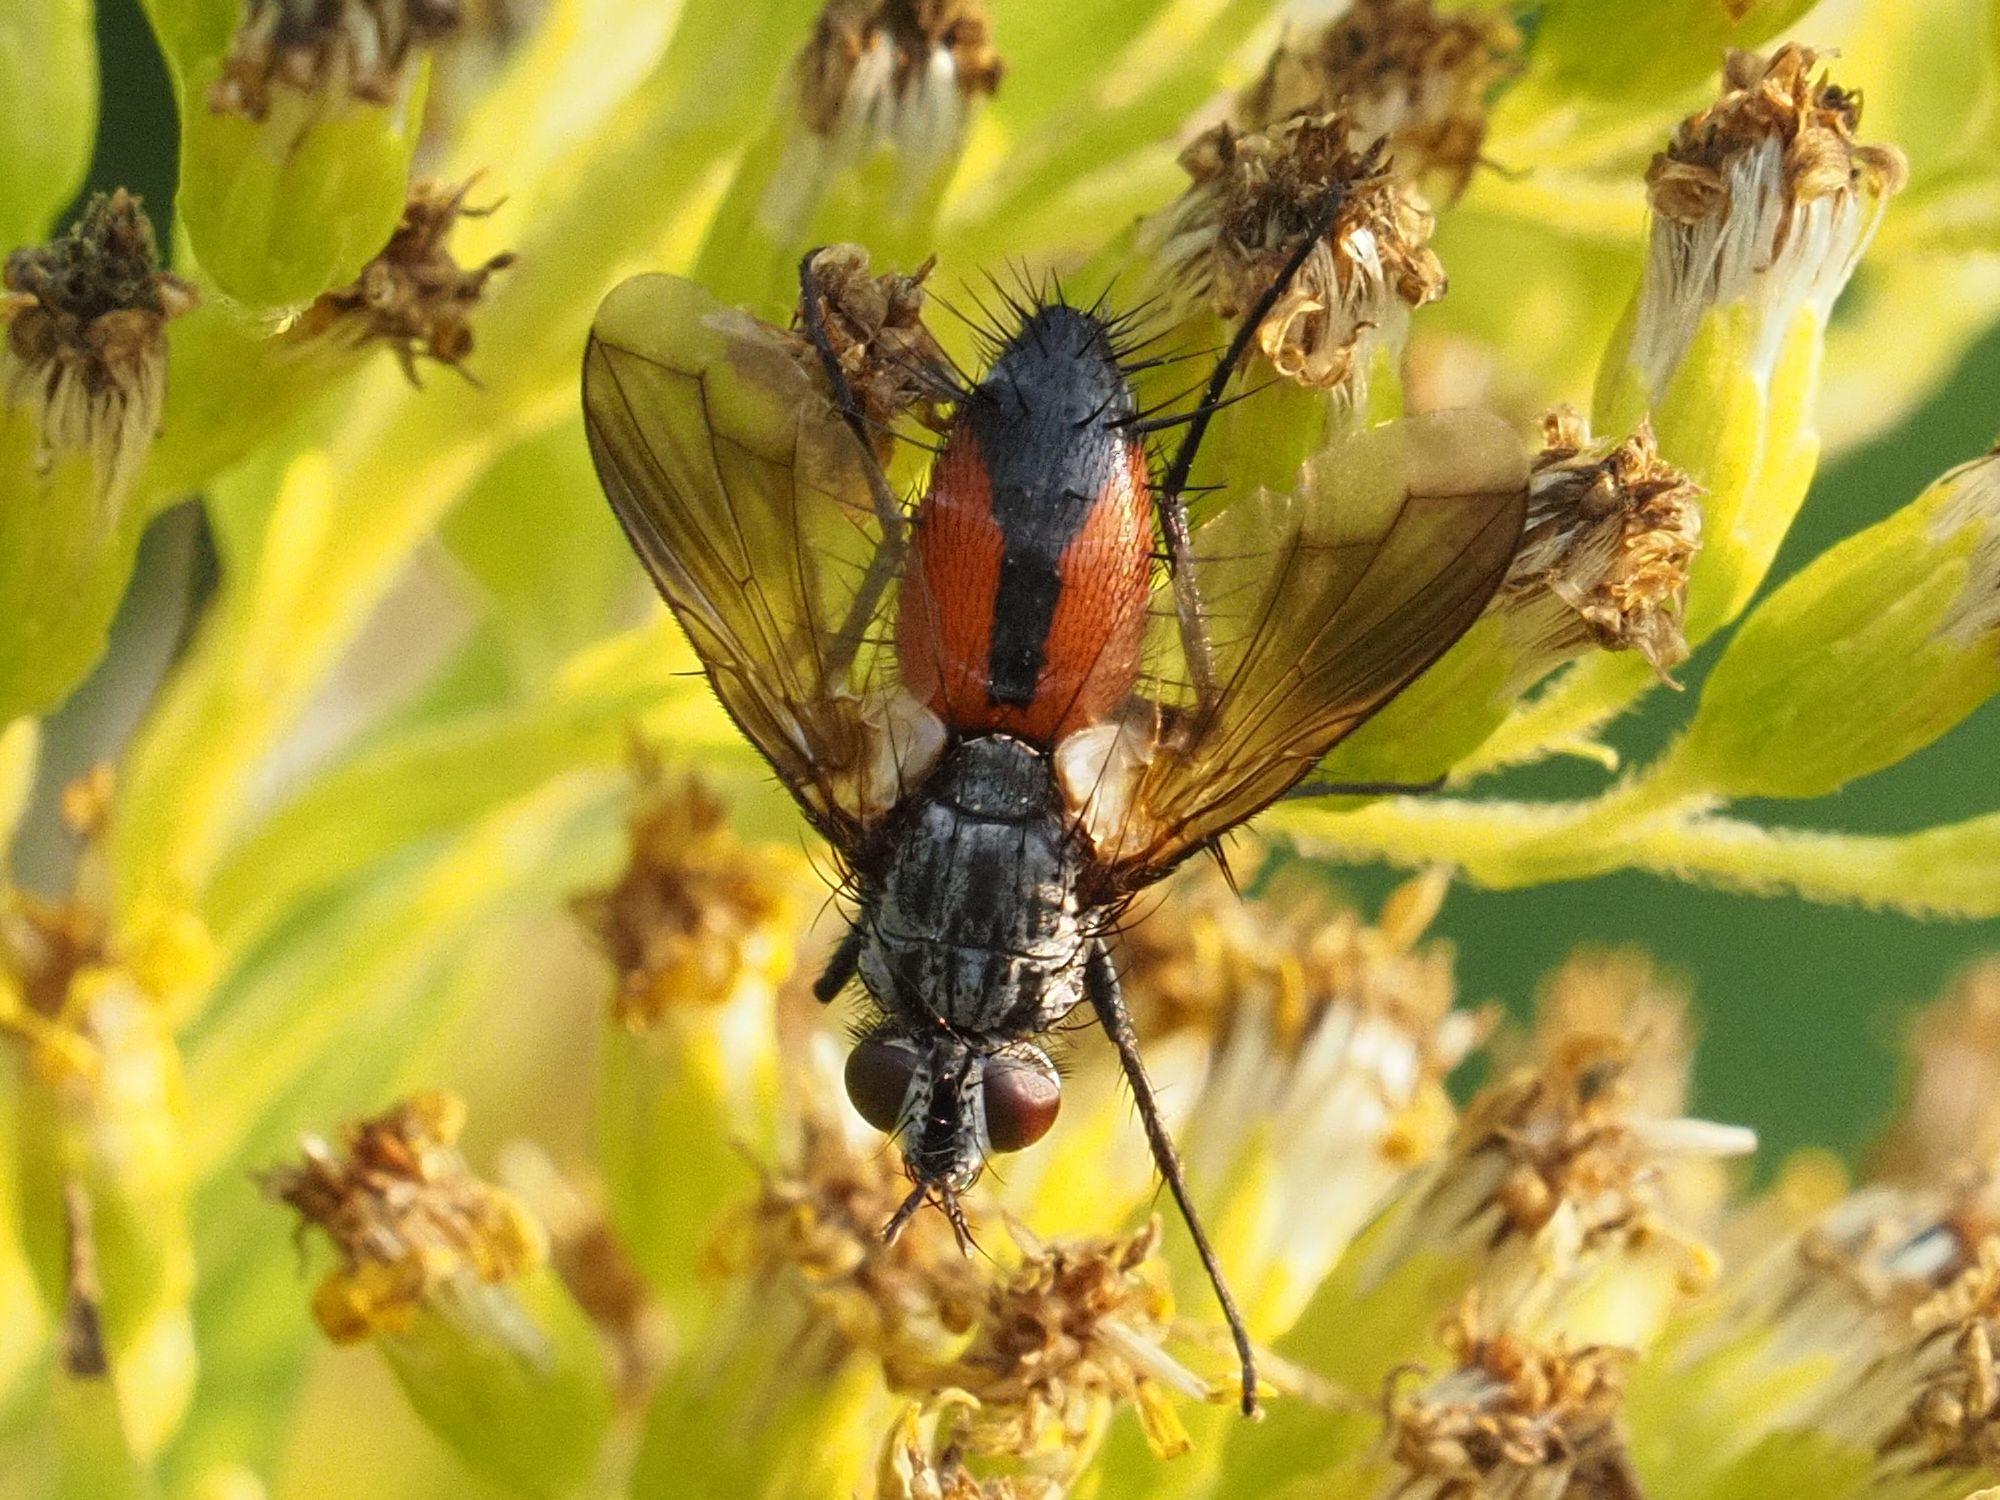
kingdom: Animalia
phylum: Arthropoda
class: Insecta
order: Diptera
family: Tachinidae
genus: Eriothrix
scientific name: Eriothrix rufomaculatus
